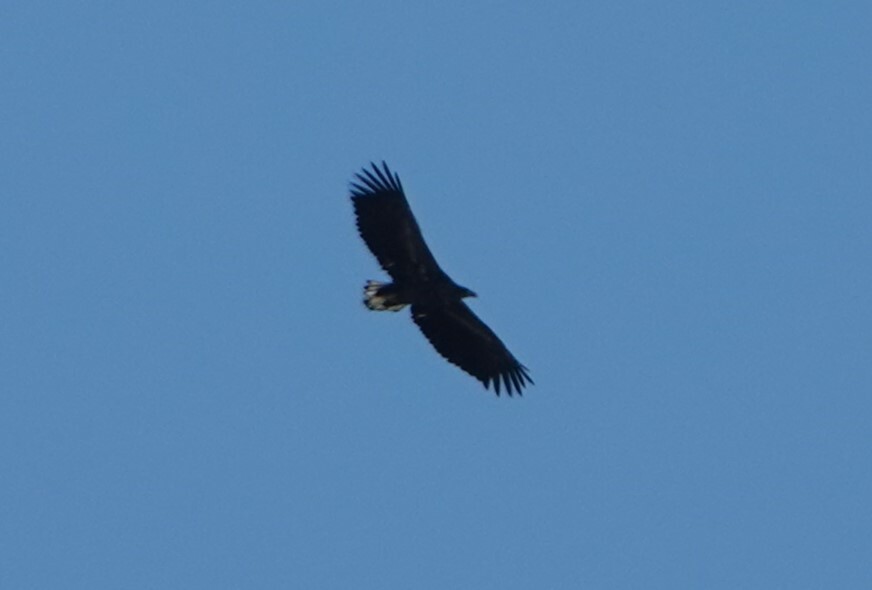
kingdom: Animalia
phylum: Chordata
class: Aves
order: Accipitriformes
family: Accipitridae
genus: Haliaeetus
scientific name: Haliaeetus albicilla
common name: White-tailed eagle
